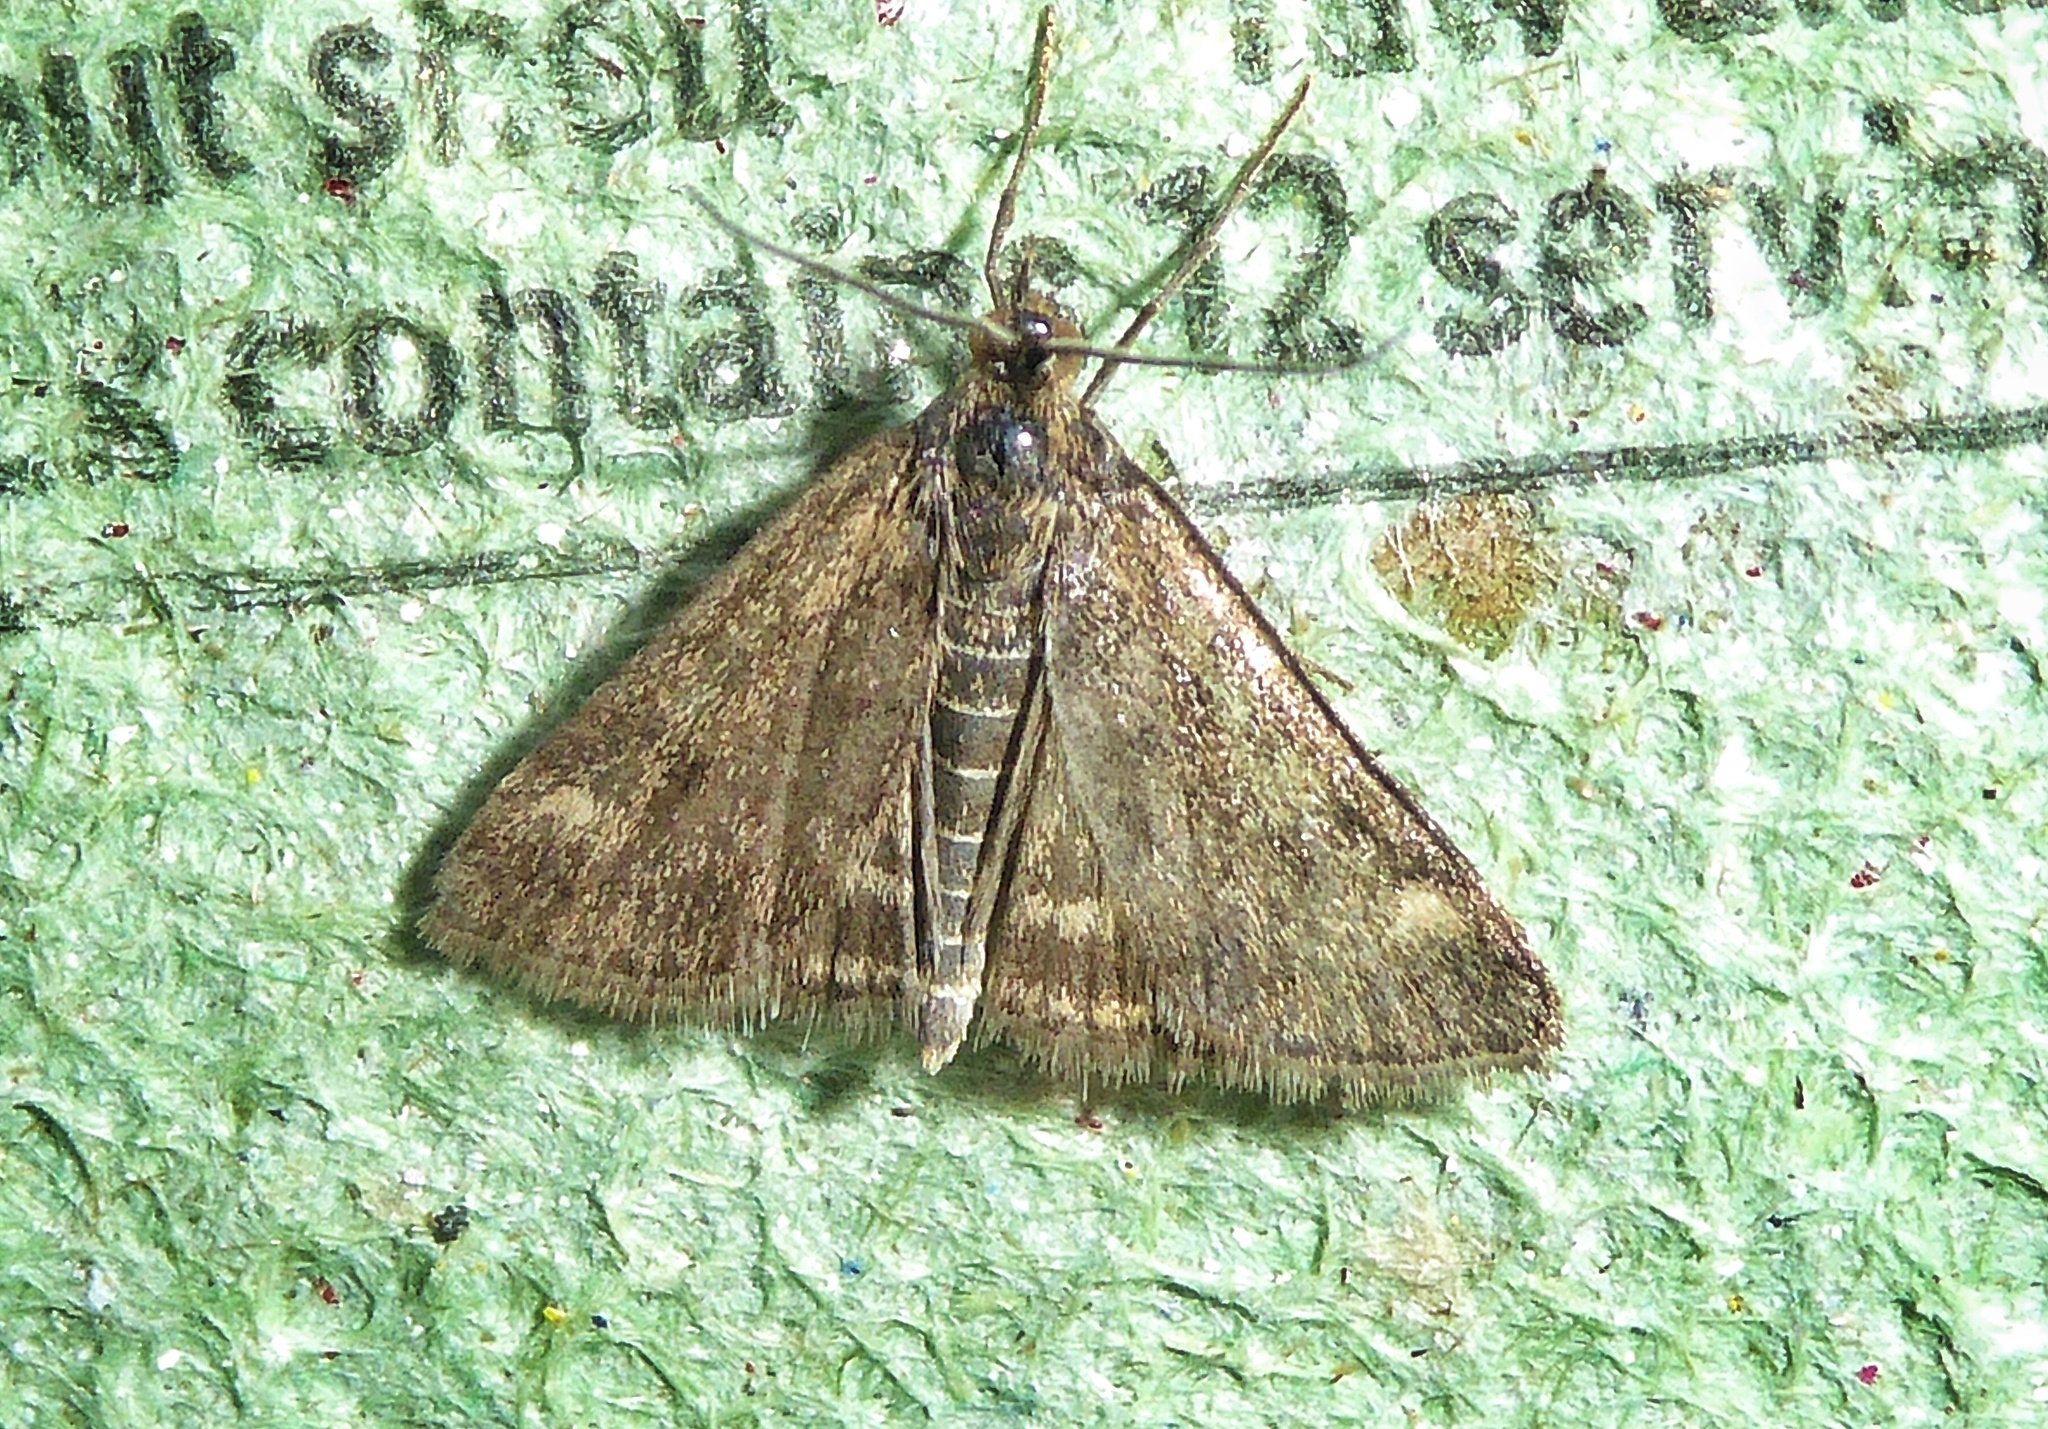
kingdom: Animalia
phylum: Arthropoda
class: Insecta
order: Lepidoptera
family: Crambidae
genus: Pyrausta
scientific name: Pyrausta despicata
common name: Straw-barred pearl
